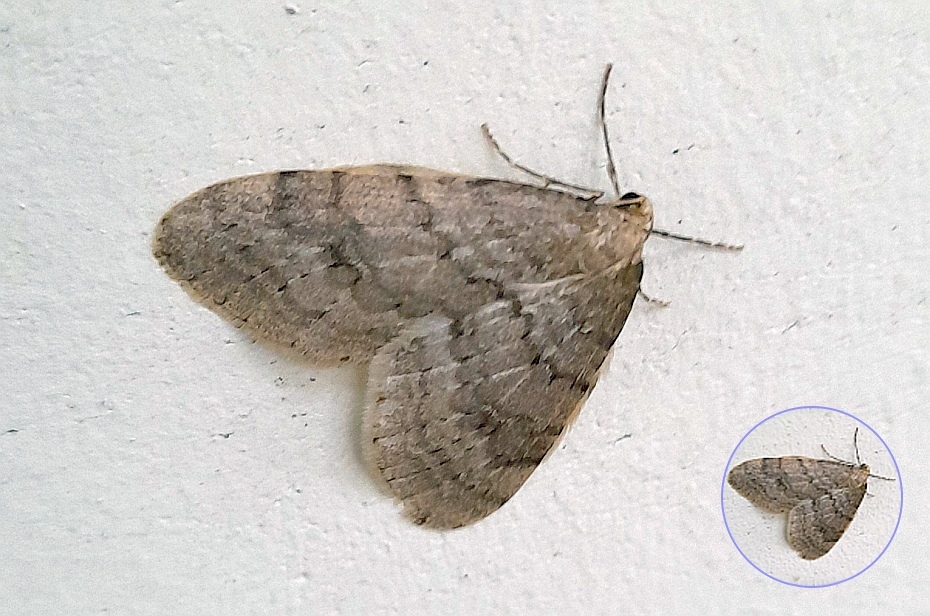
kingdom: Animalia
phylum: Arthropoda
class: Insecta
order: Lepidoptera
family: Geometridae
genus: Operophtera
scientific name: Operophtera fagata
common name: Northern winter moth
